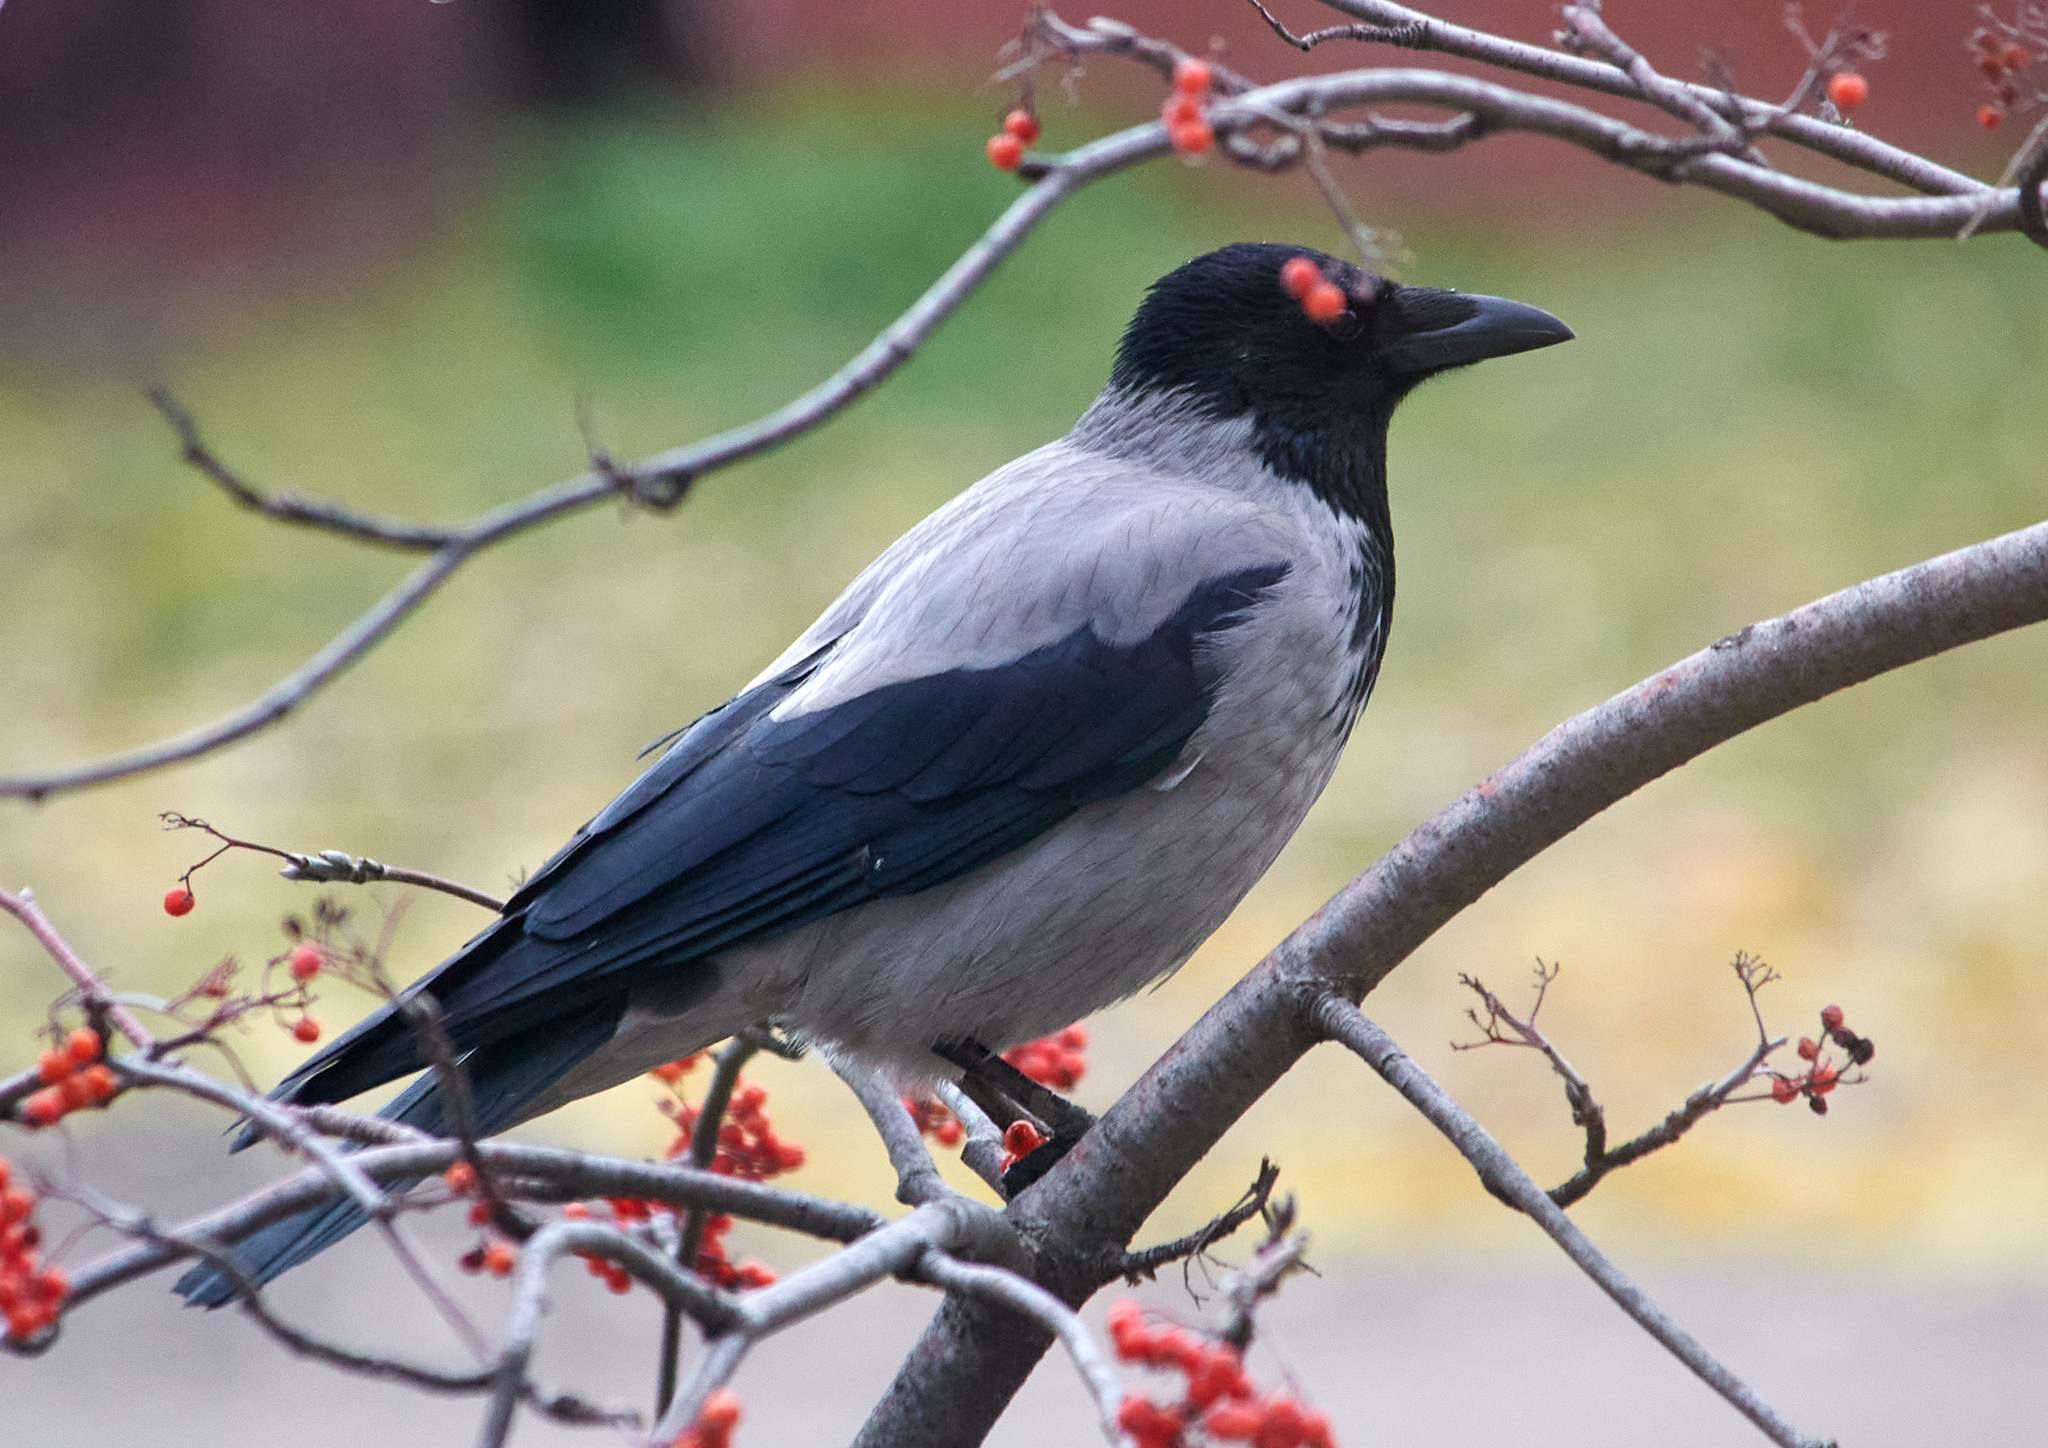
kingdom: Animalia
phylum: Chordata
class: Aves
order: Passeriformes
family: Corvidae
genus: Corvus
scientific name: Corvus cornix
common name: Hooded crow
